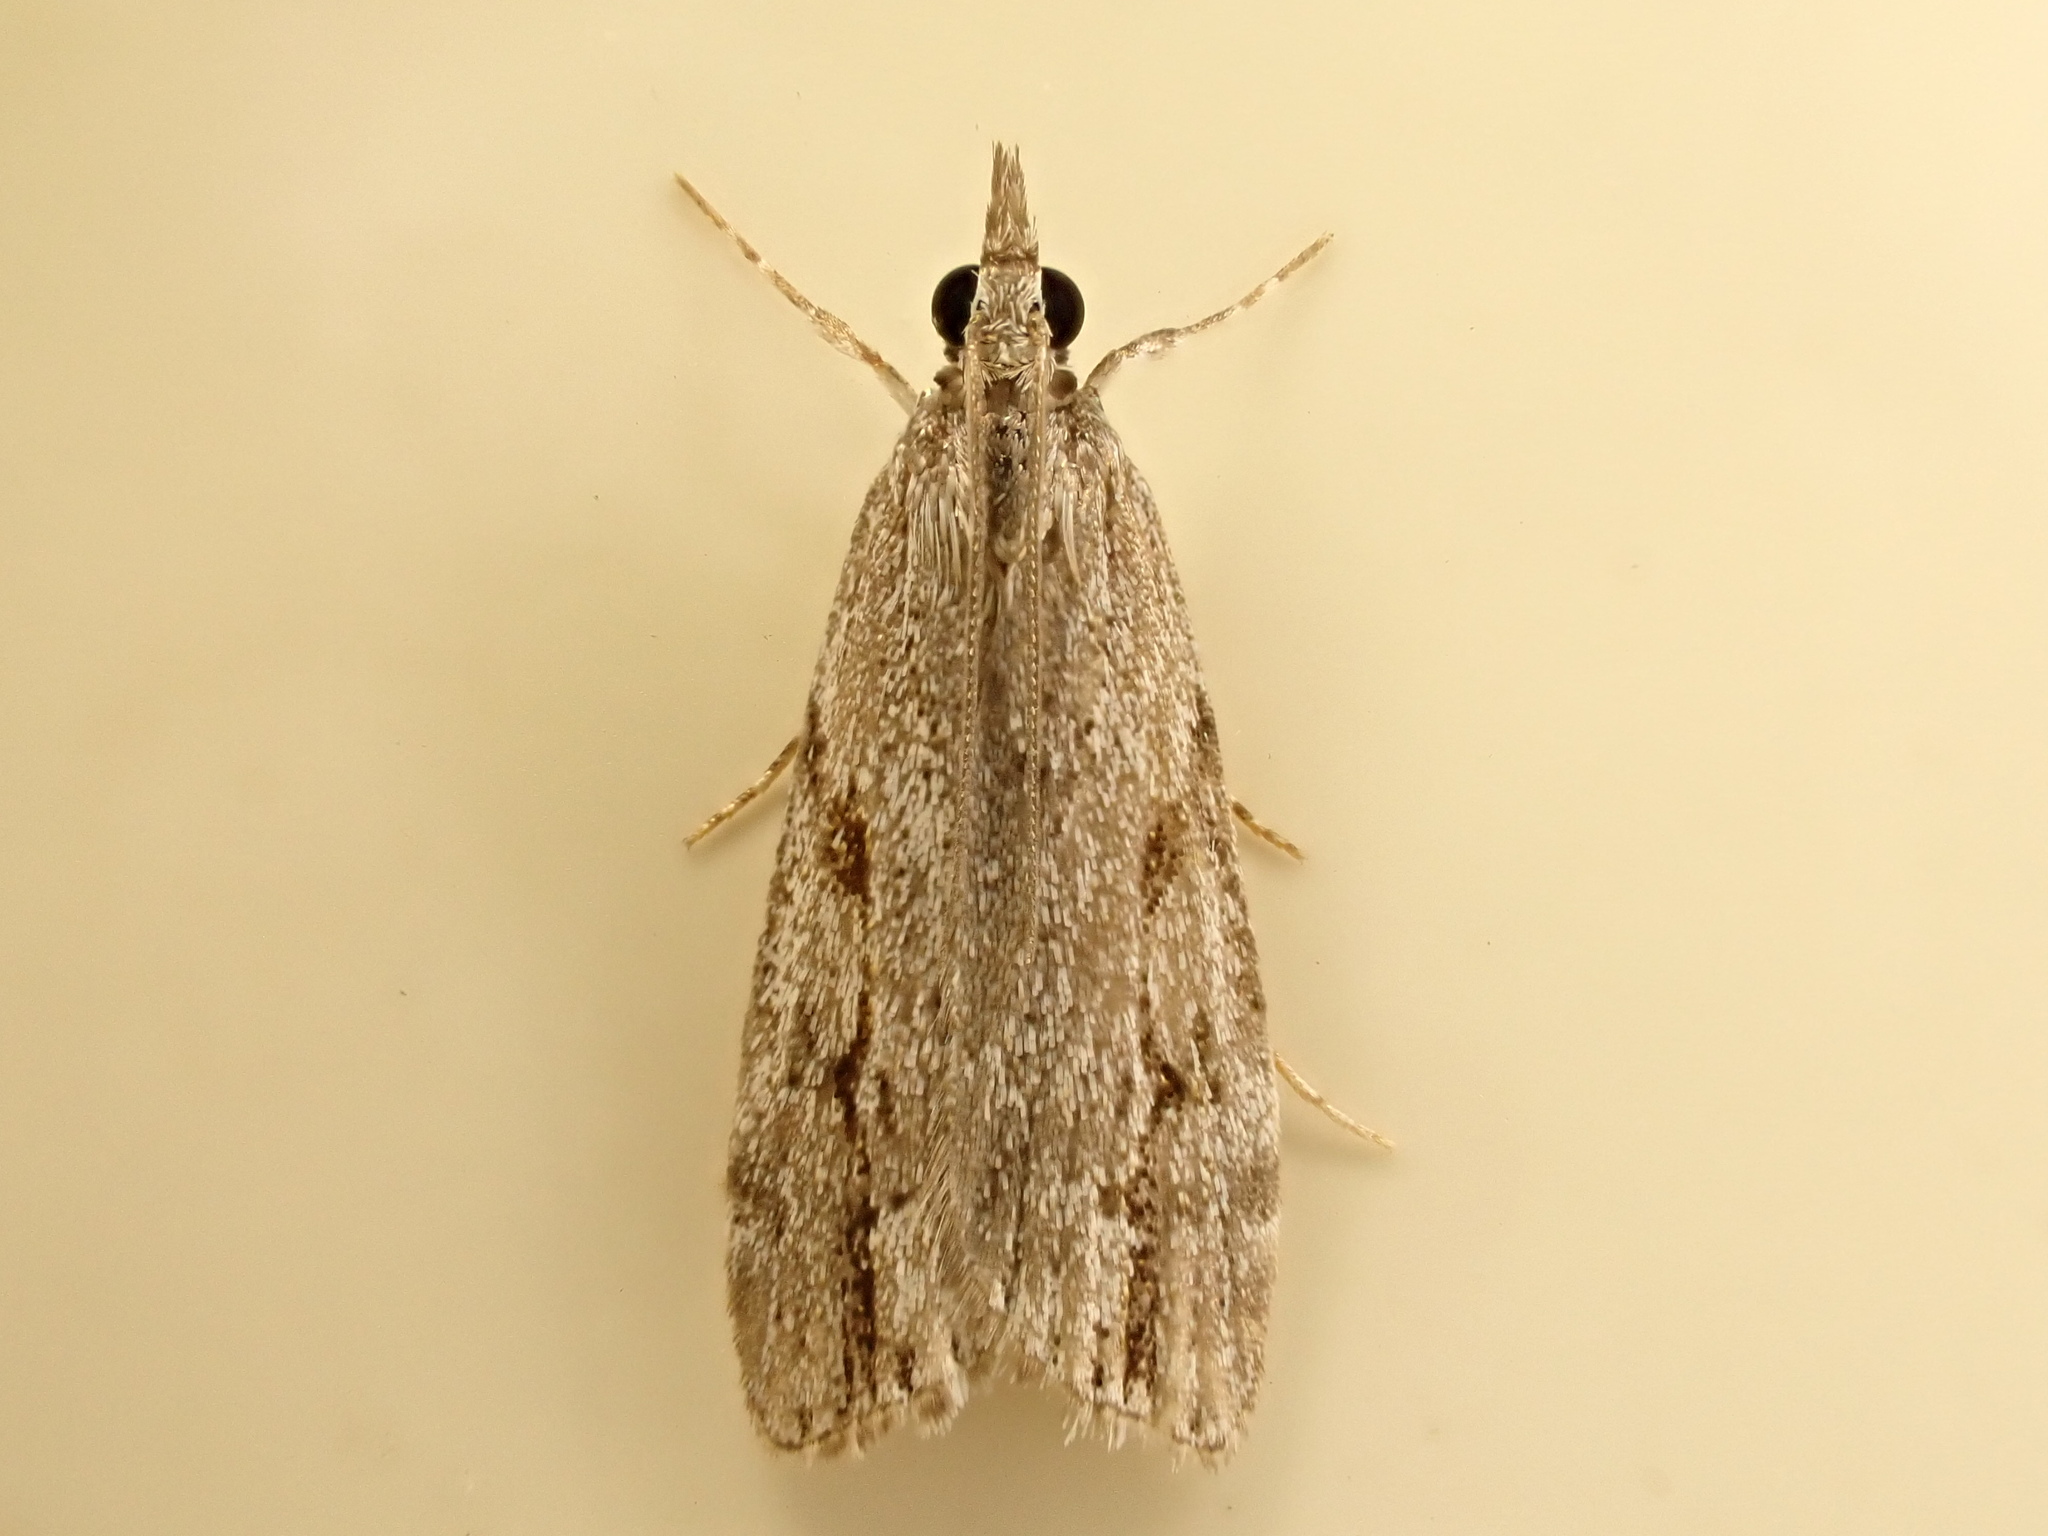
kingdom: Animalia
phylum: Arthropoda
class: Insecta
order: Lepidoptera
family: Crambidae
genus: Eudonia
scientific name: Eudonia bisinualis
